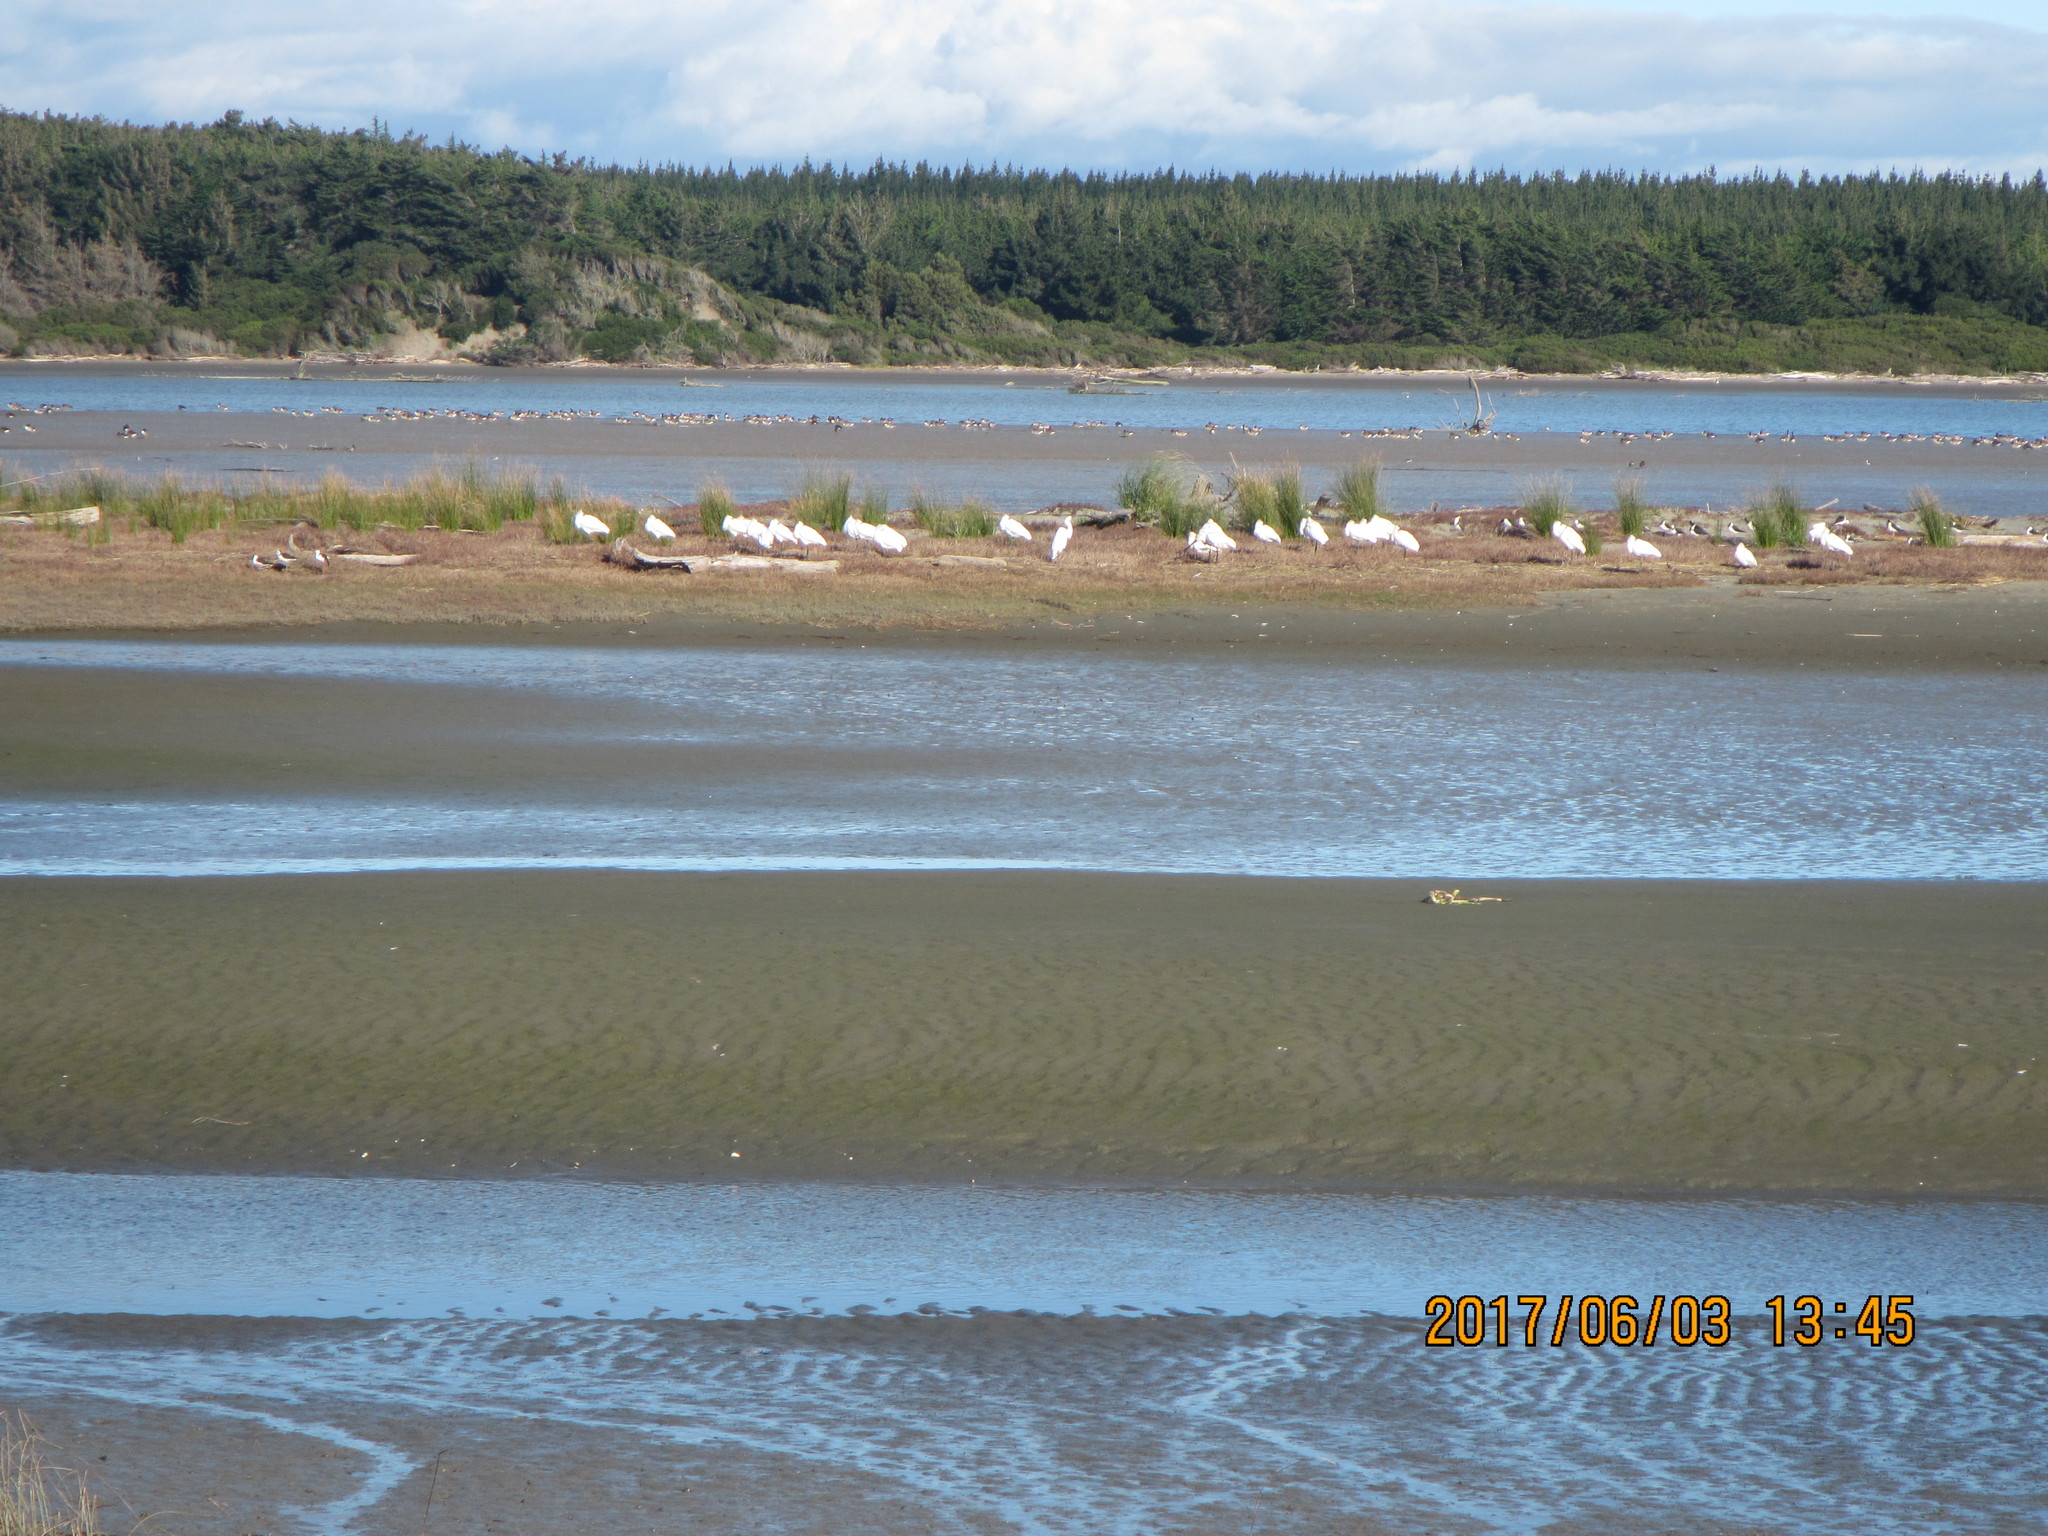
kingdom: Animalia
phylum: Chordata
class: Aves
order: Pelecaniformes
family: Threskiornithidae
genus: Platalea
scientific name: Platalea regia
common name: Royal spoonbill
